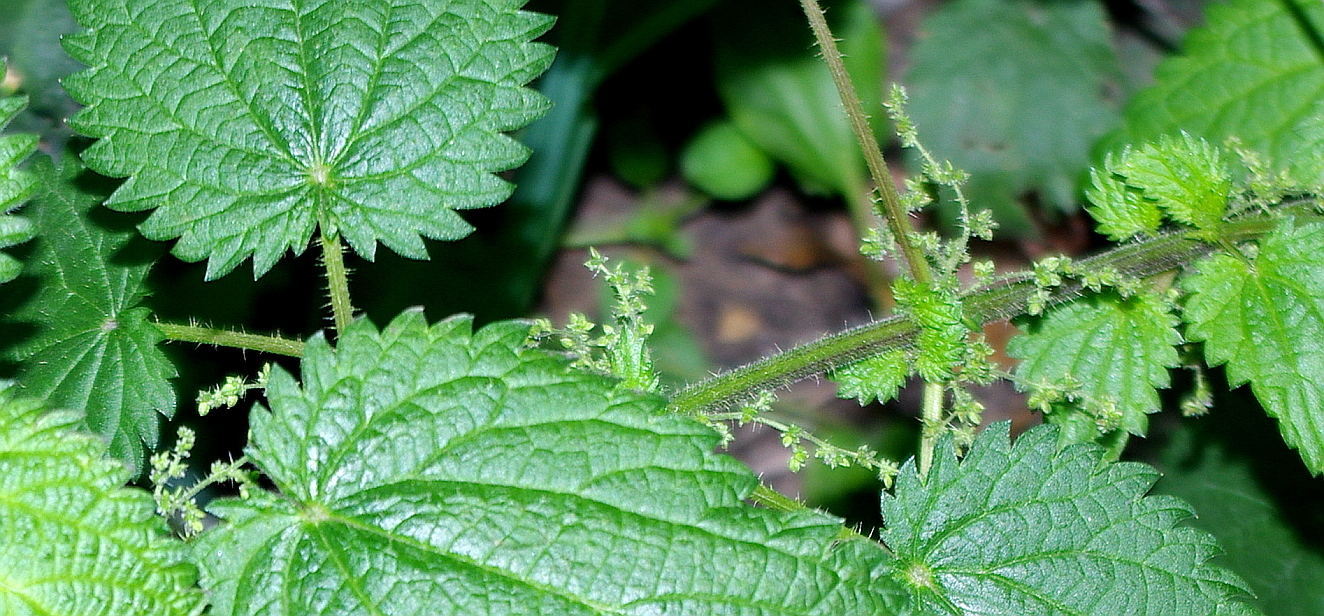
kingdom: Plantae
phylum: Tracheophyta
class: Magnoliopsida
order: Rosales
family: Urticaceae
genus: Urtica
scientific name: Urtica dioica
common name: Common nettle
